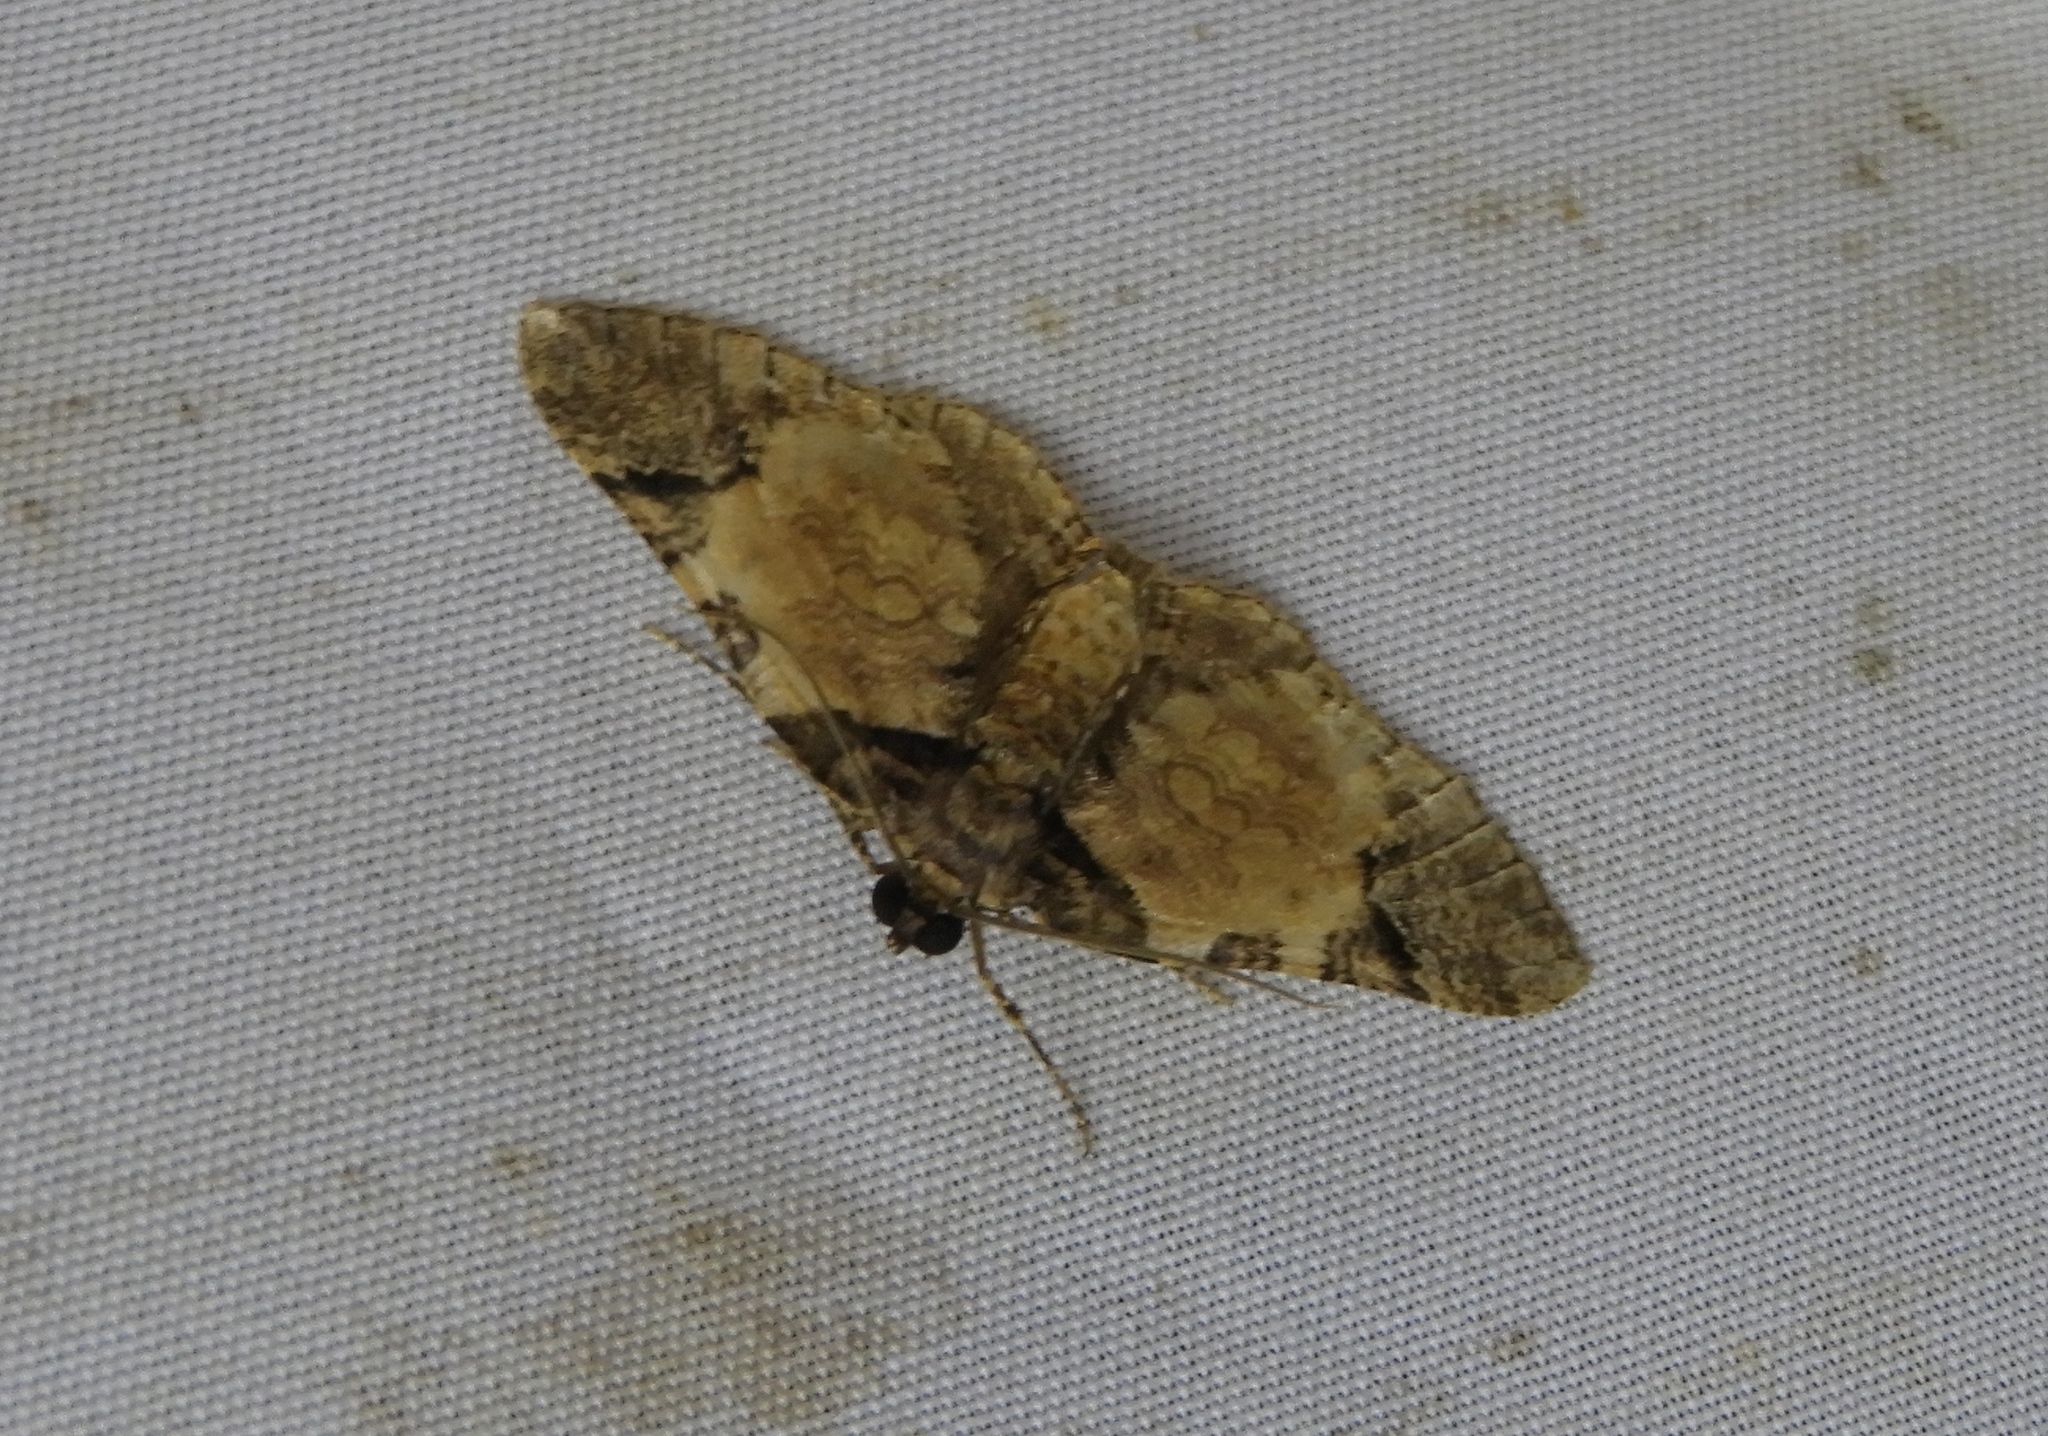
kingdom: Animalia
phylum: Arthropoda
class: Insecta
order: Lepidoptera
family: Geometridae
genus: Archirhoe
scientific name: Archirhoe neomexicana
